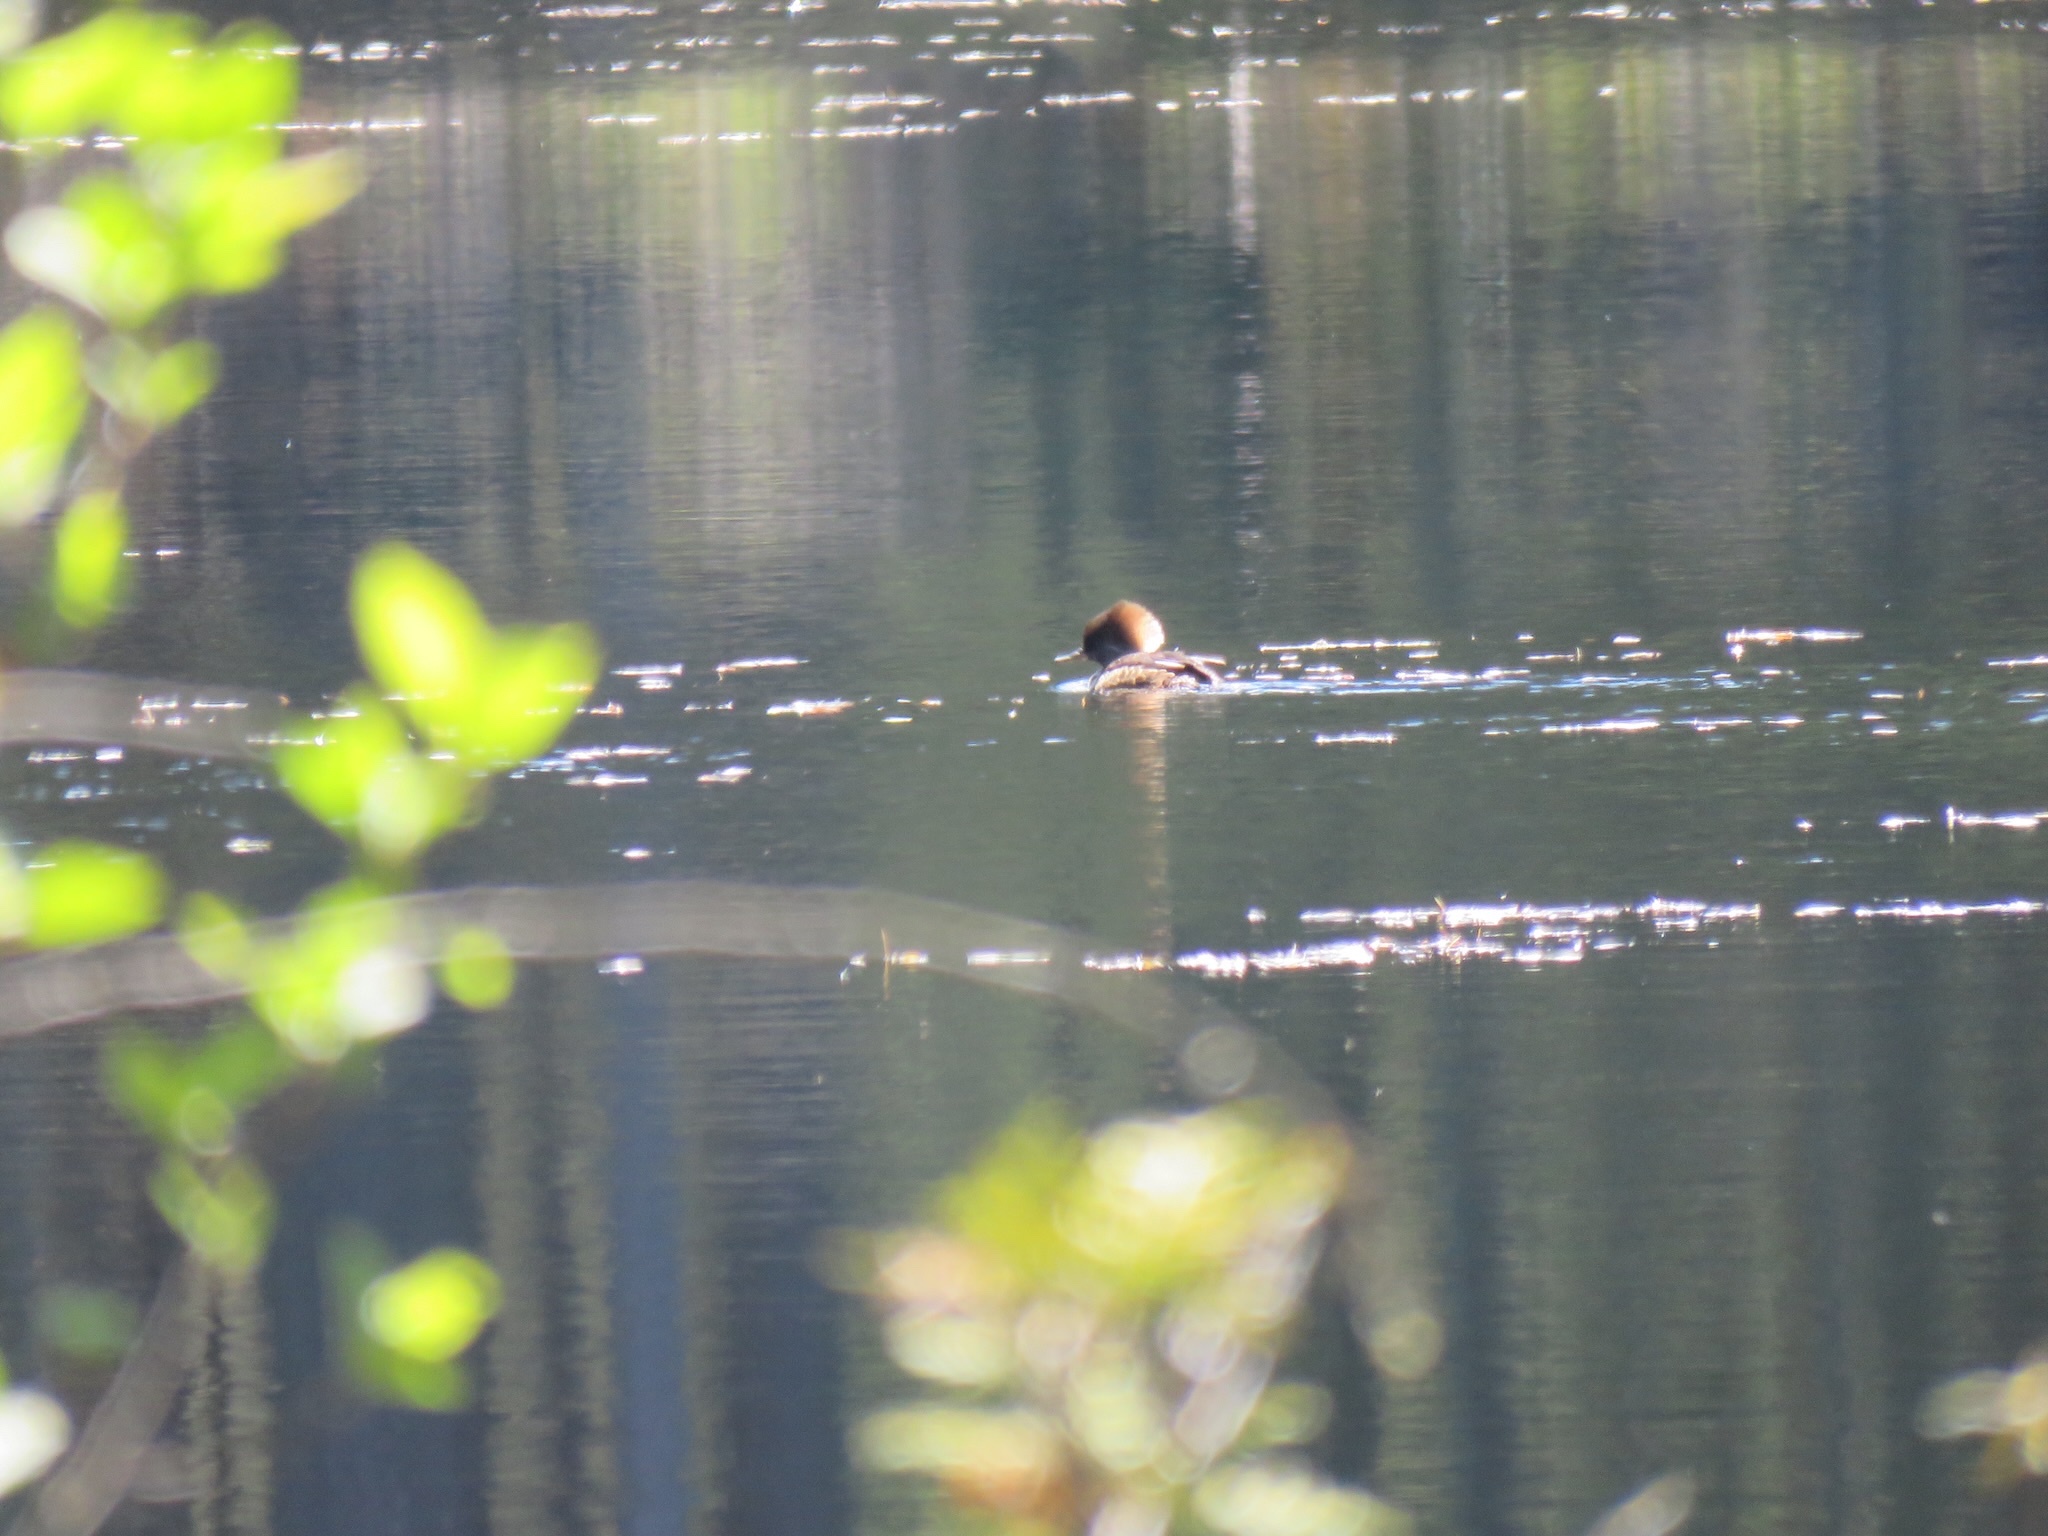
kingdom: Animalia
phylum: Chordata
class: Aves
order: Anseriformes
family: Anatidae
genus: Lophodytes
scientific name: Lophodytes cucullatus
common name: Hooded merganser
